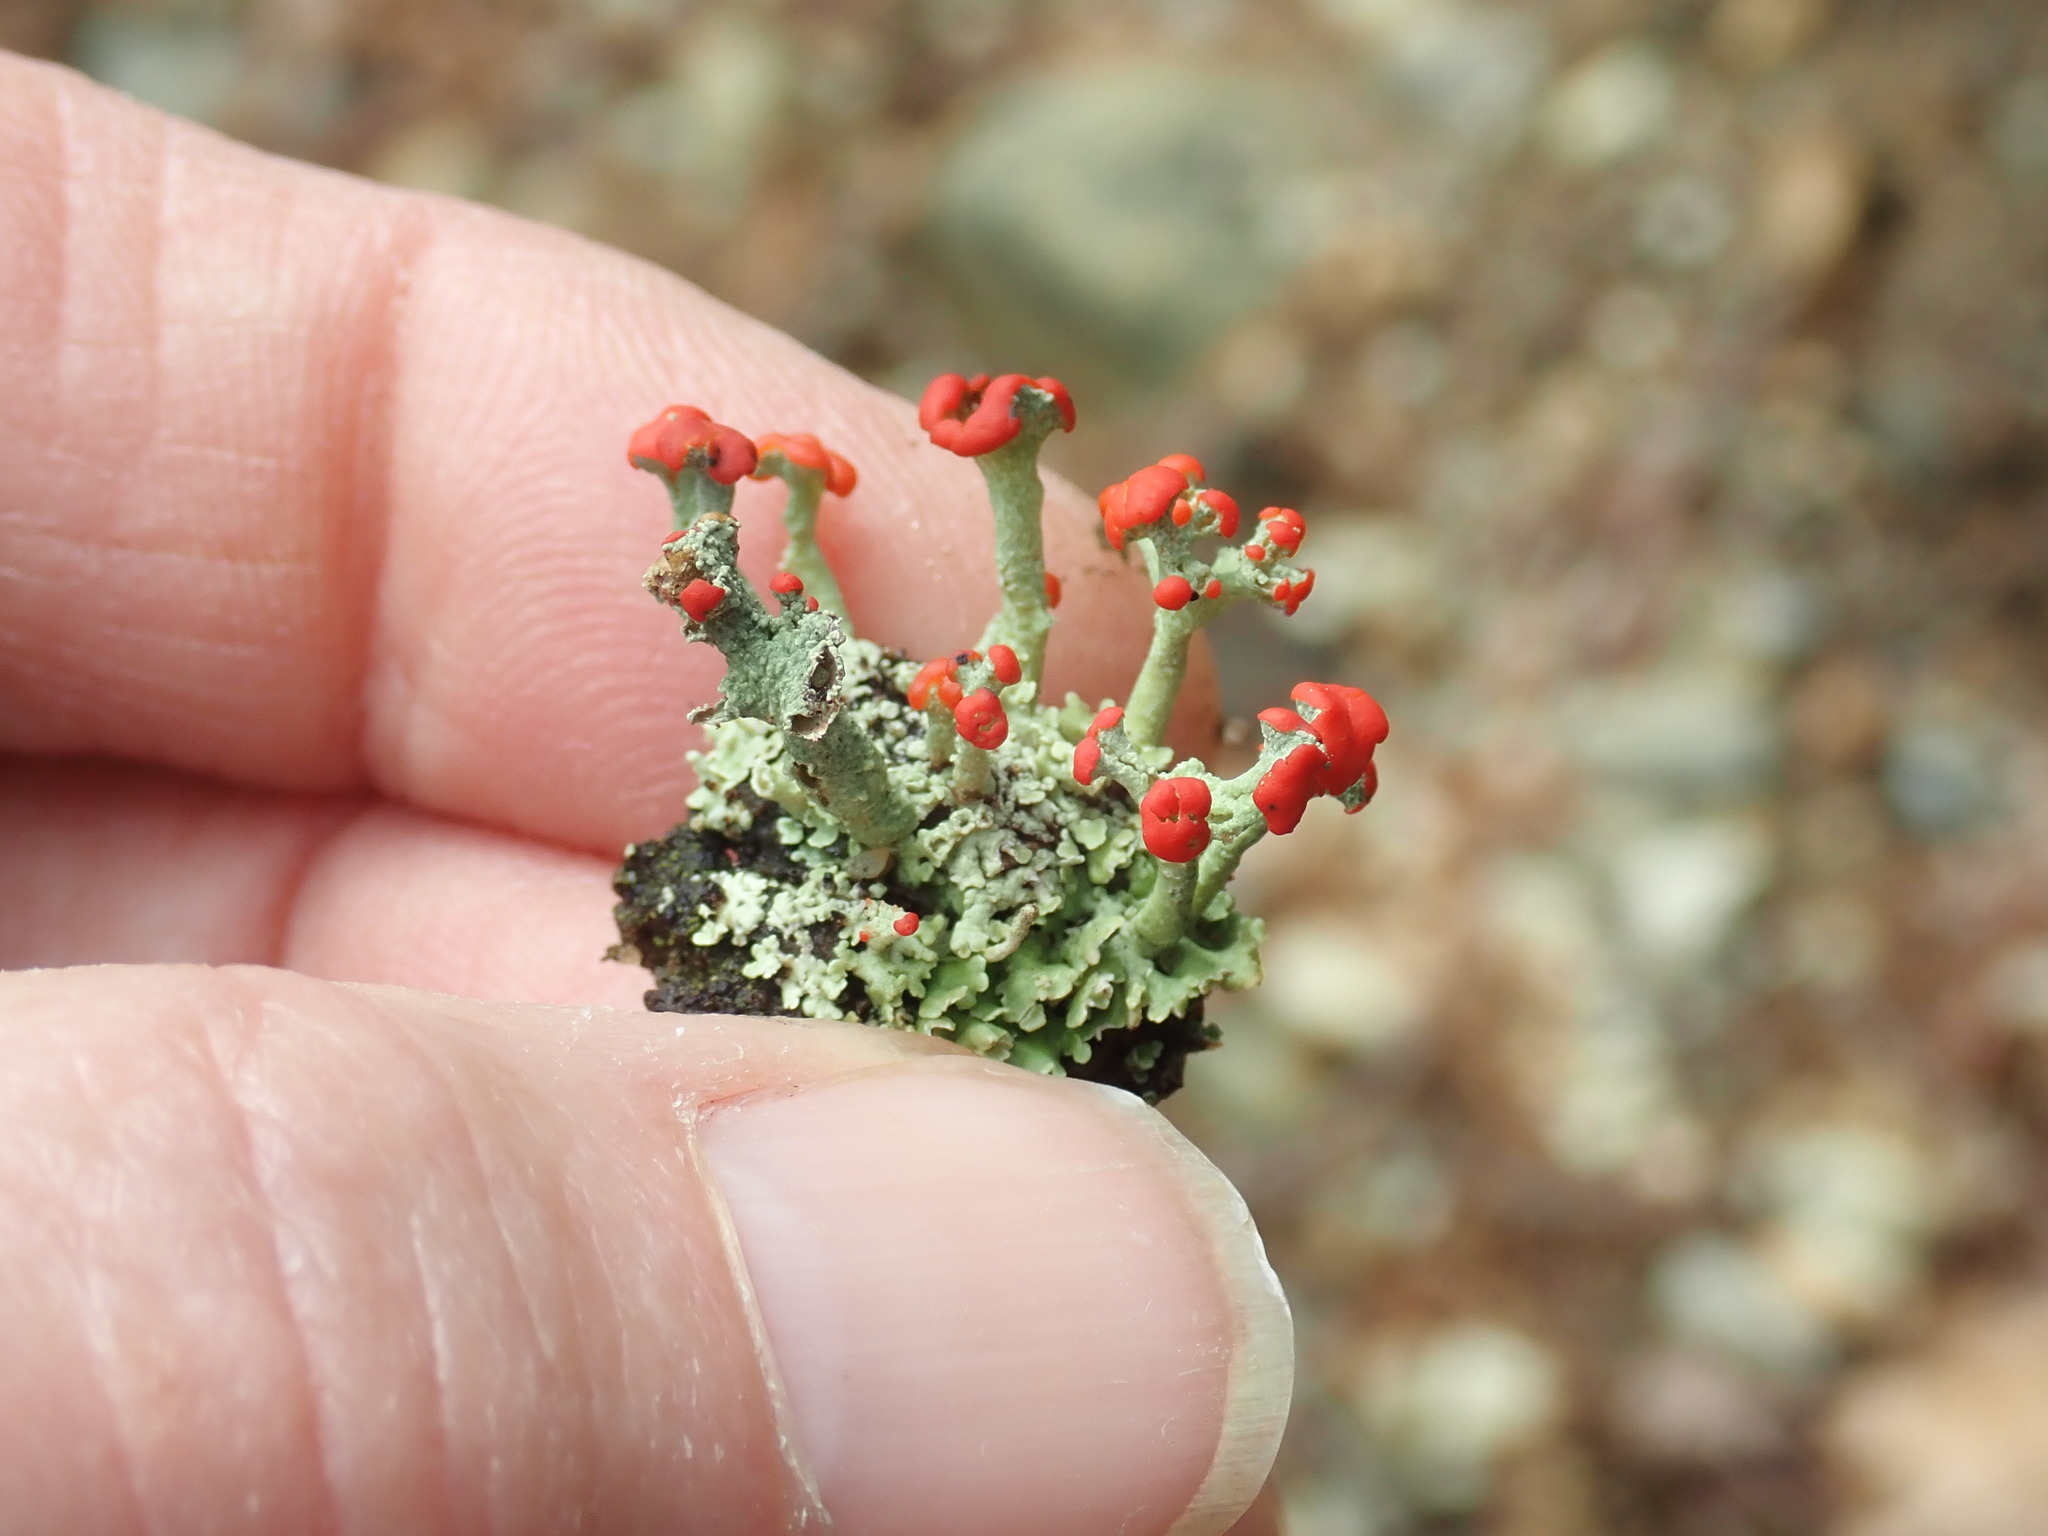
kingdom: Fungi
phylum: Ascomycota
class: Lecanoromycetes
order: Lecanorales
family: Cladoniaceae
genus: Cladonia
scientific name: Cladonia cristatella
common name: British soldier lichen
